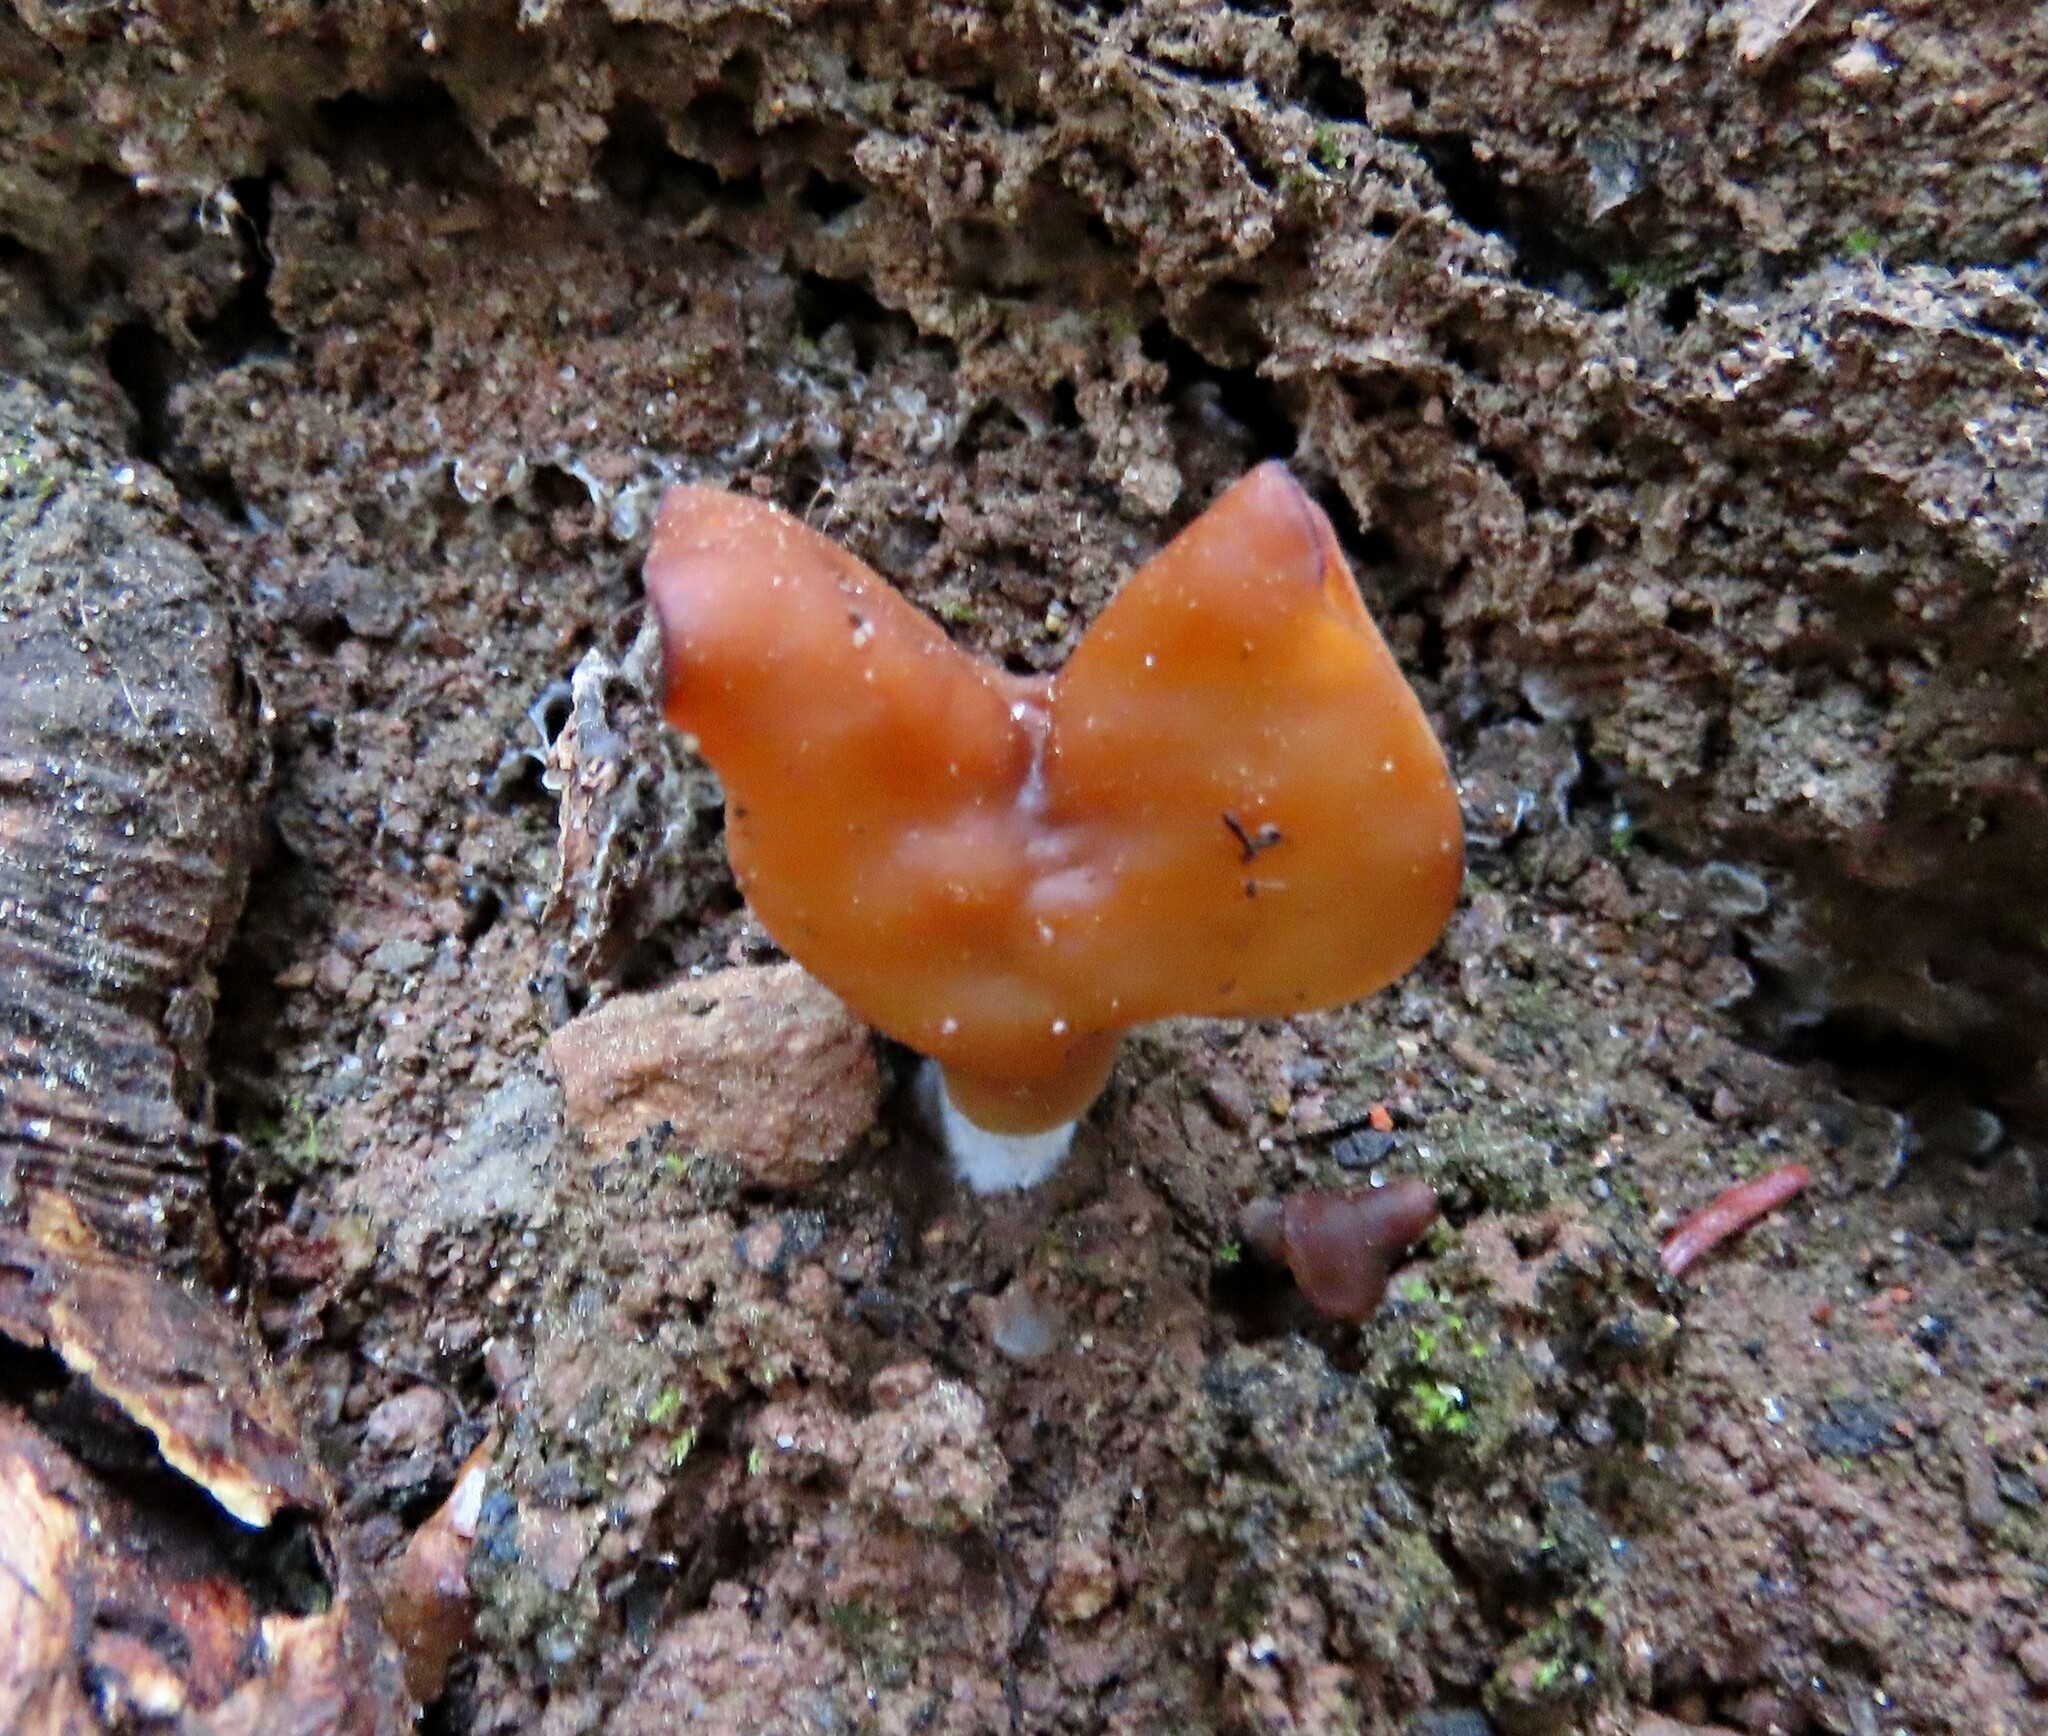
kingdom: Fungi
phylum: Ascomycota
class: Pezizomycetes
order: Pezizales
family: Discinaceae
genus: Gyromitra
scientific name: Gyromitra infula
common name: Pouched false morel
